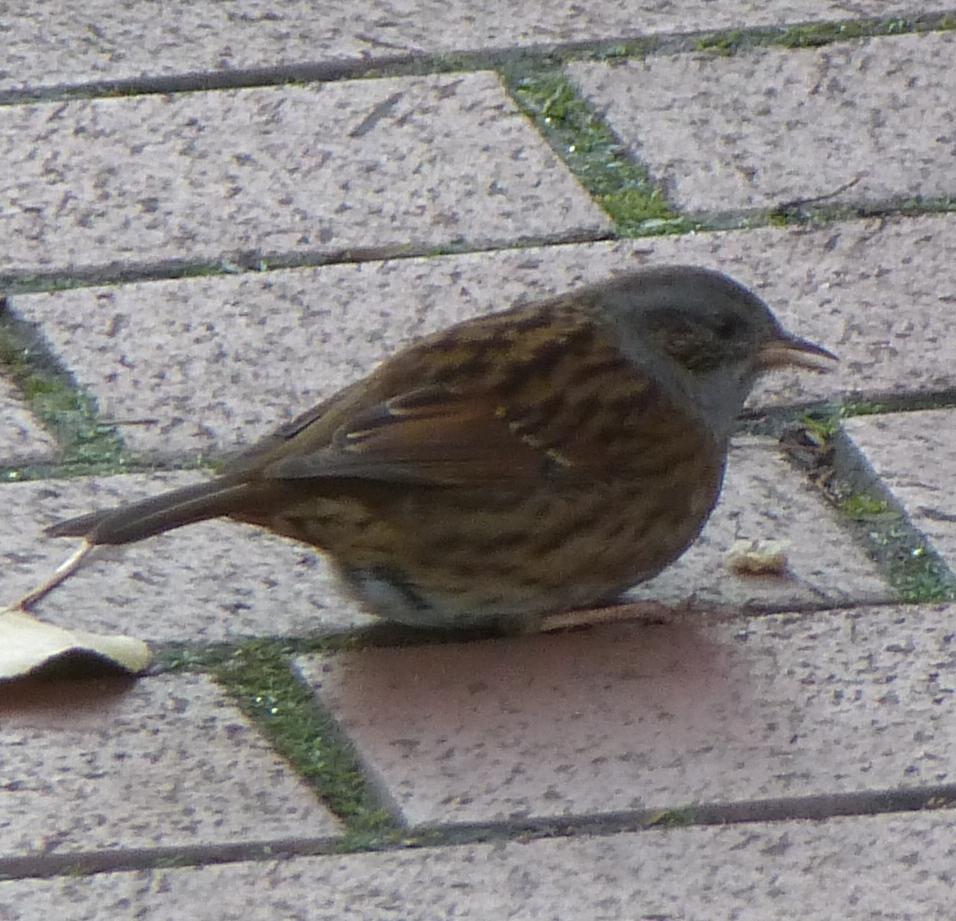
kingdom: Animalia
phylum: Chordata
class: Aves
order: Passeriformes
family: Prunellidae
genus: Prunella
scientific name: Prunella modularis
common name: Dunnock
